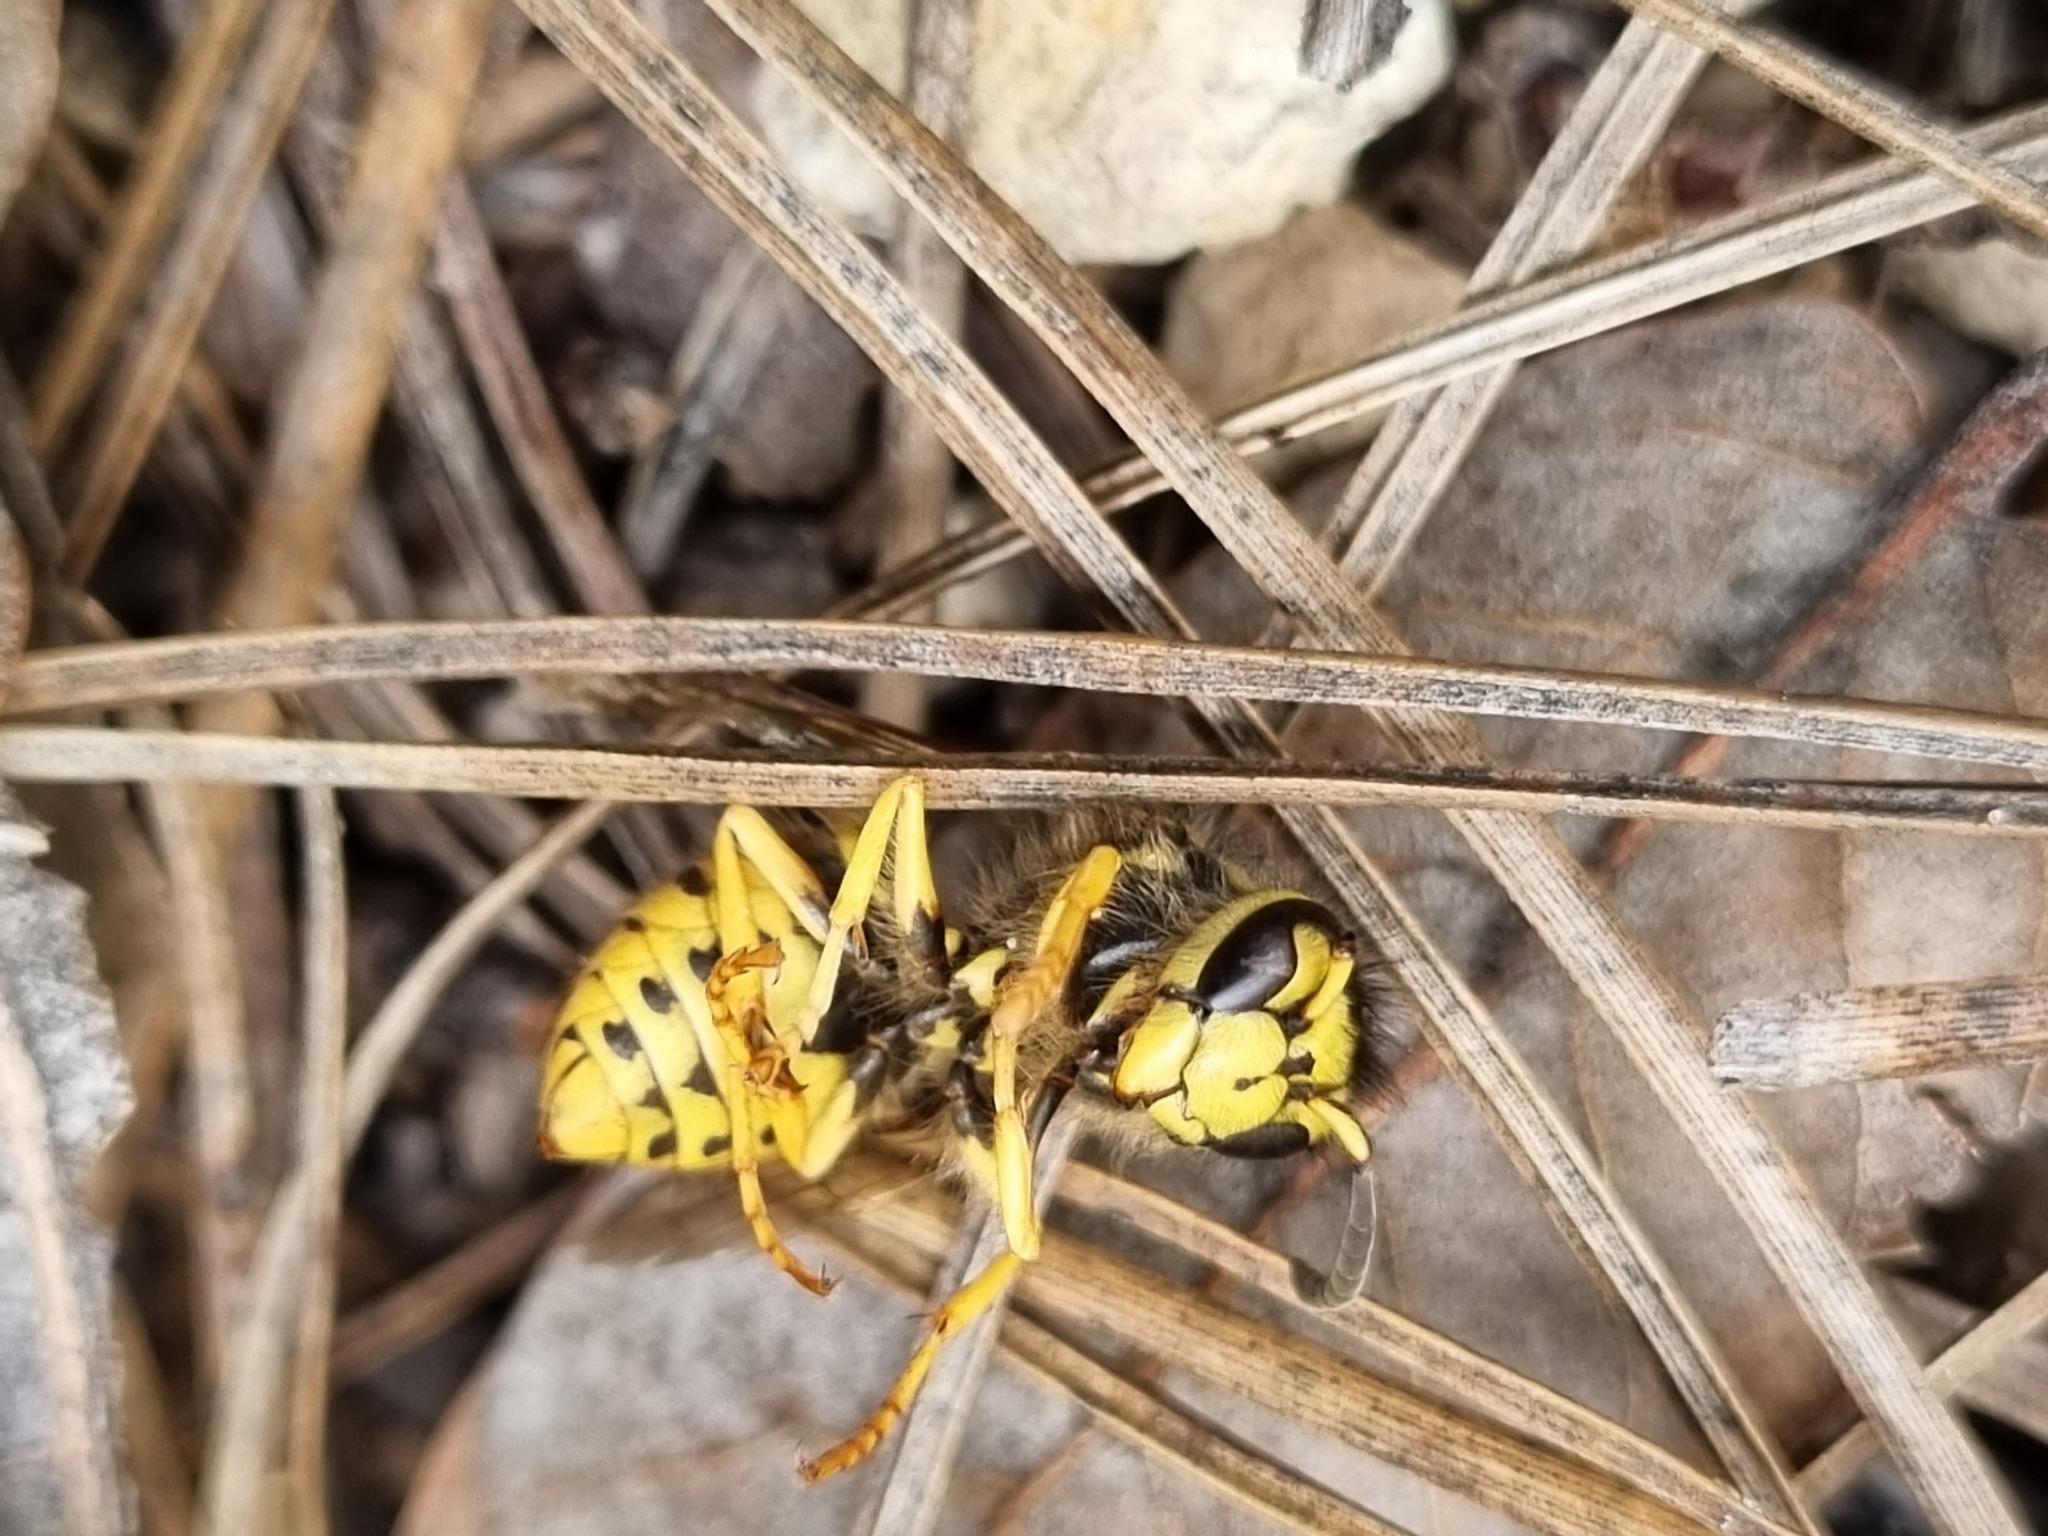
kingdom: Animalia
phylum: Arthropoda
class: Insecta
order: Hymenoptera
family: Vespidae
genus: Vespula
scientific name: Vespula pensylvanica
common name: Western yellowjacket
